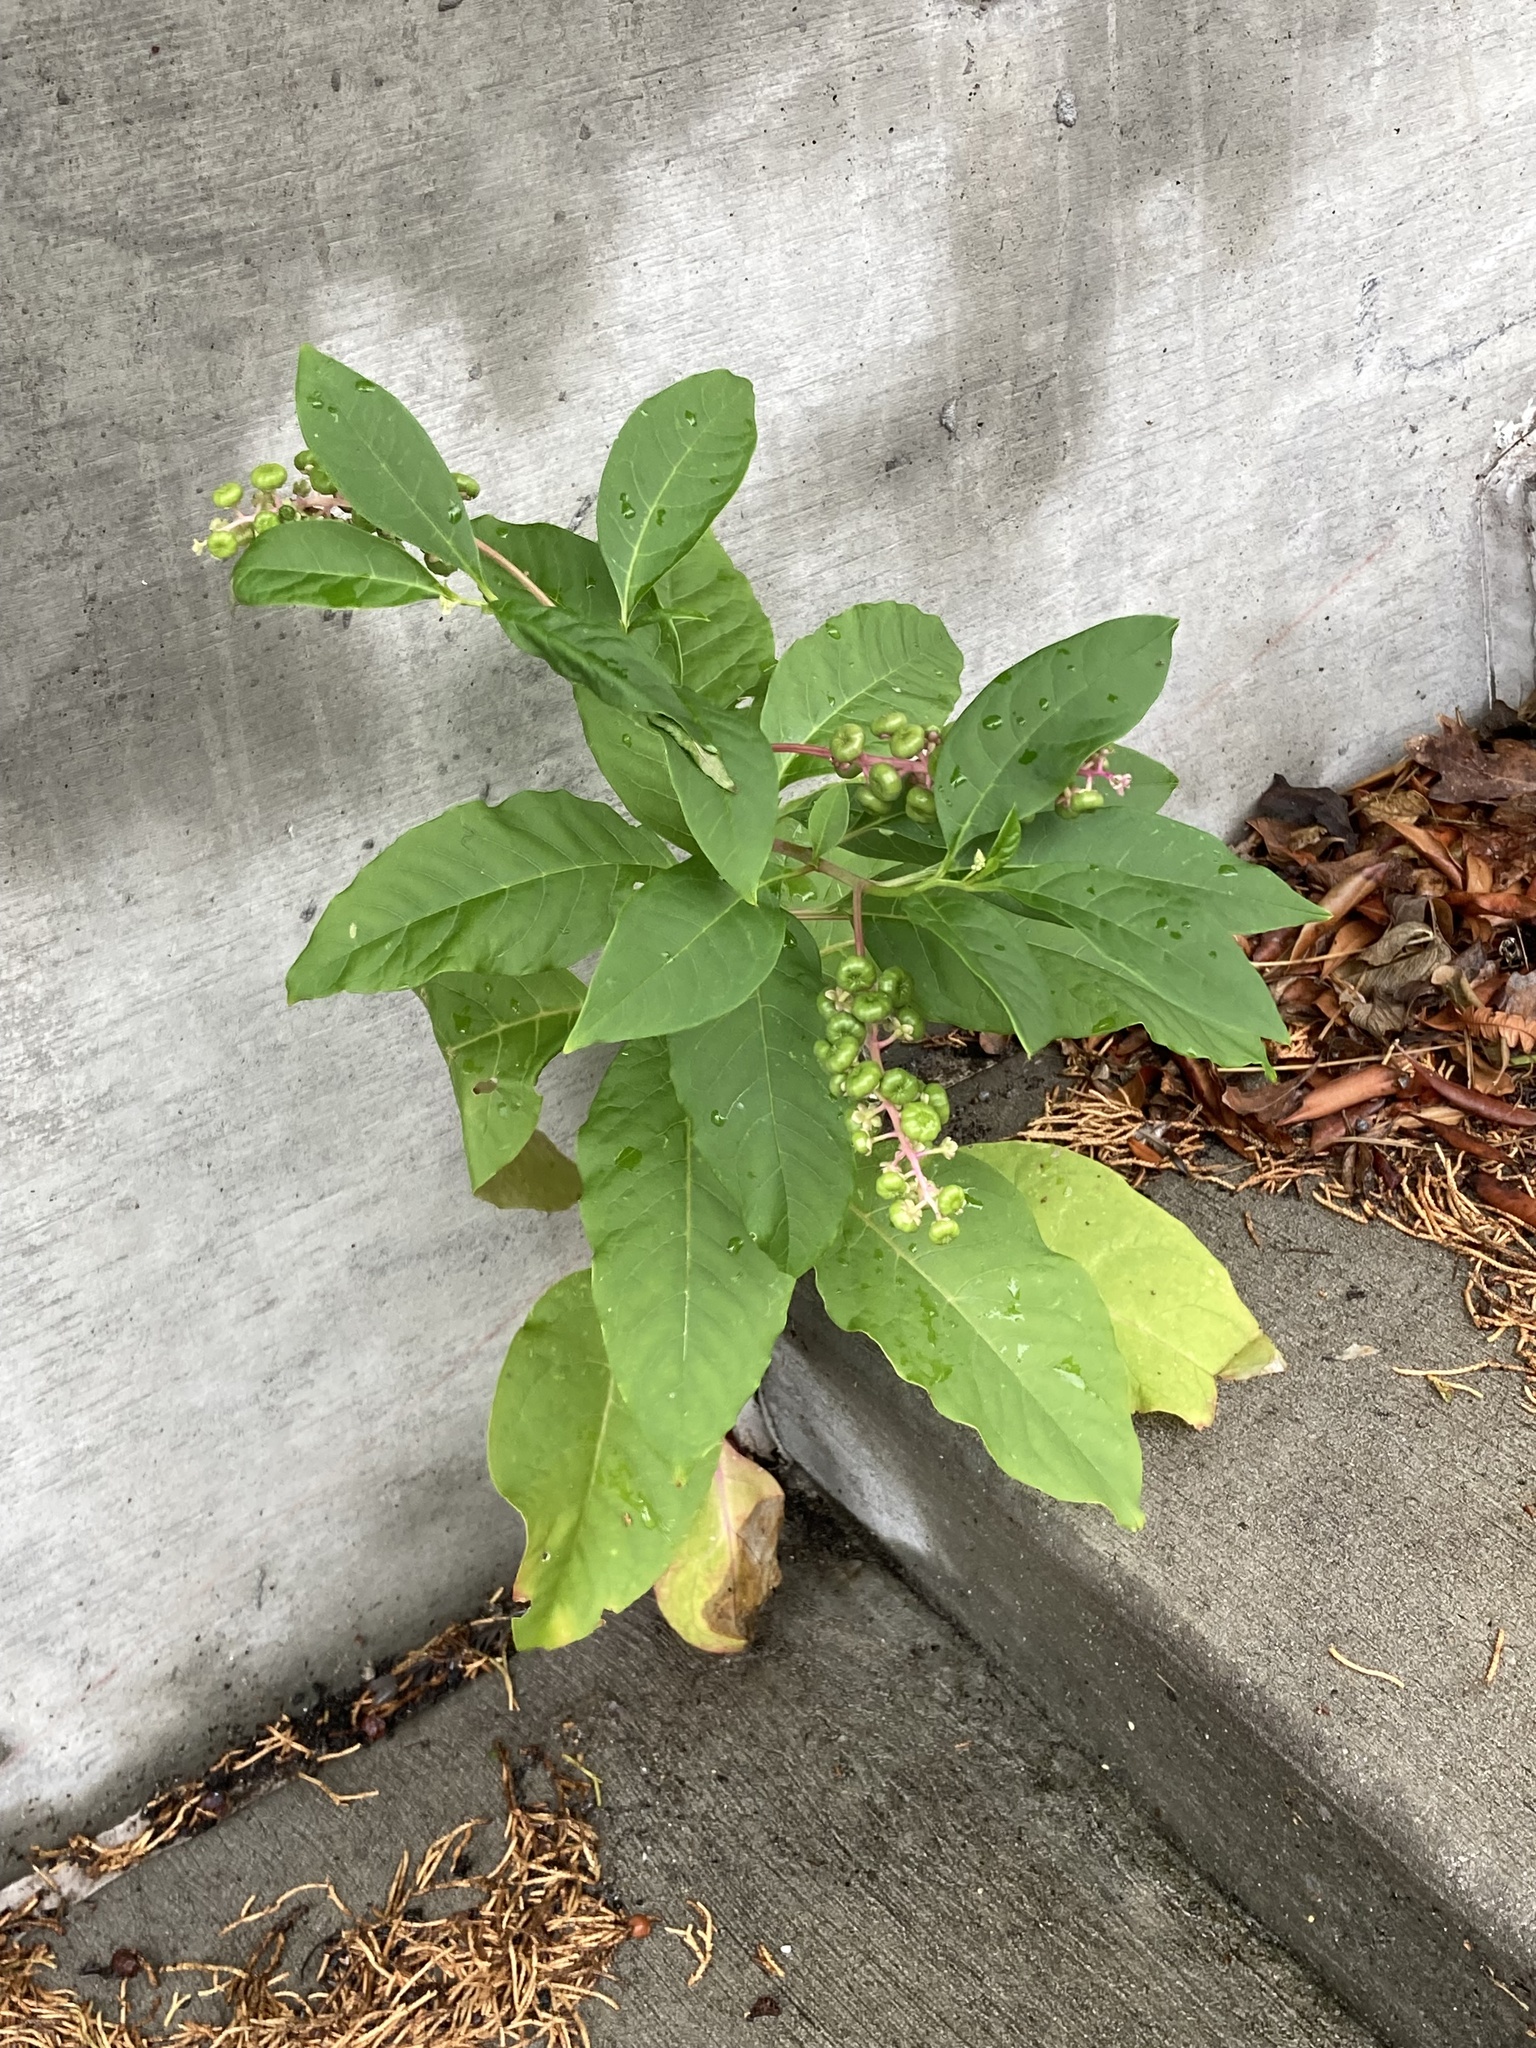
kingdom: Plantae
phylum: Tracheophyta
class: Magnoliopsida
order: Caryophyllales
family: Phytolaccaceae
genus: Phytolacca
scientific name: Phytolacca americana
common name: American pokeweed
